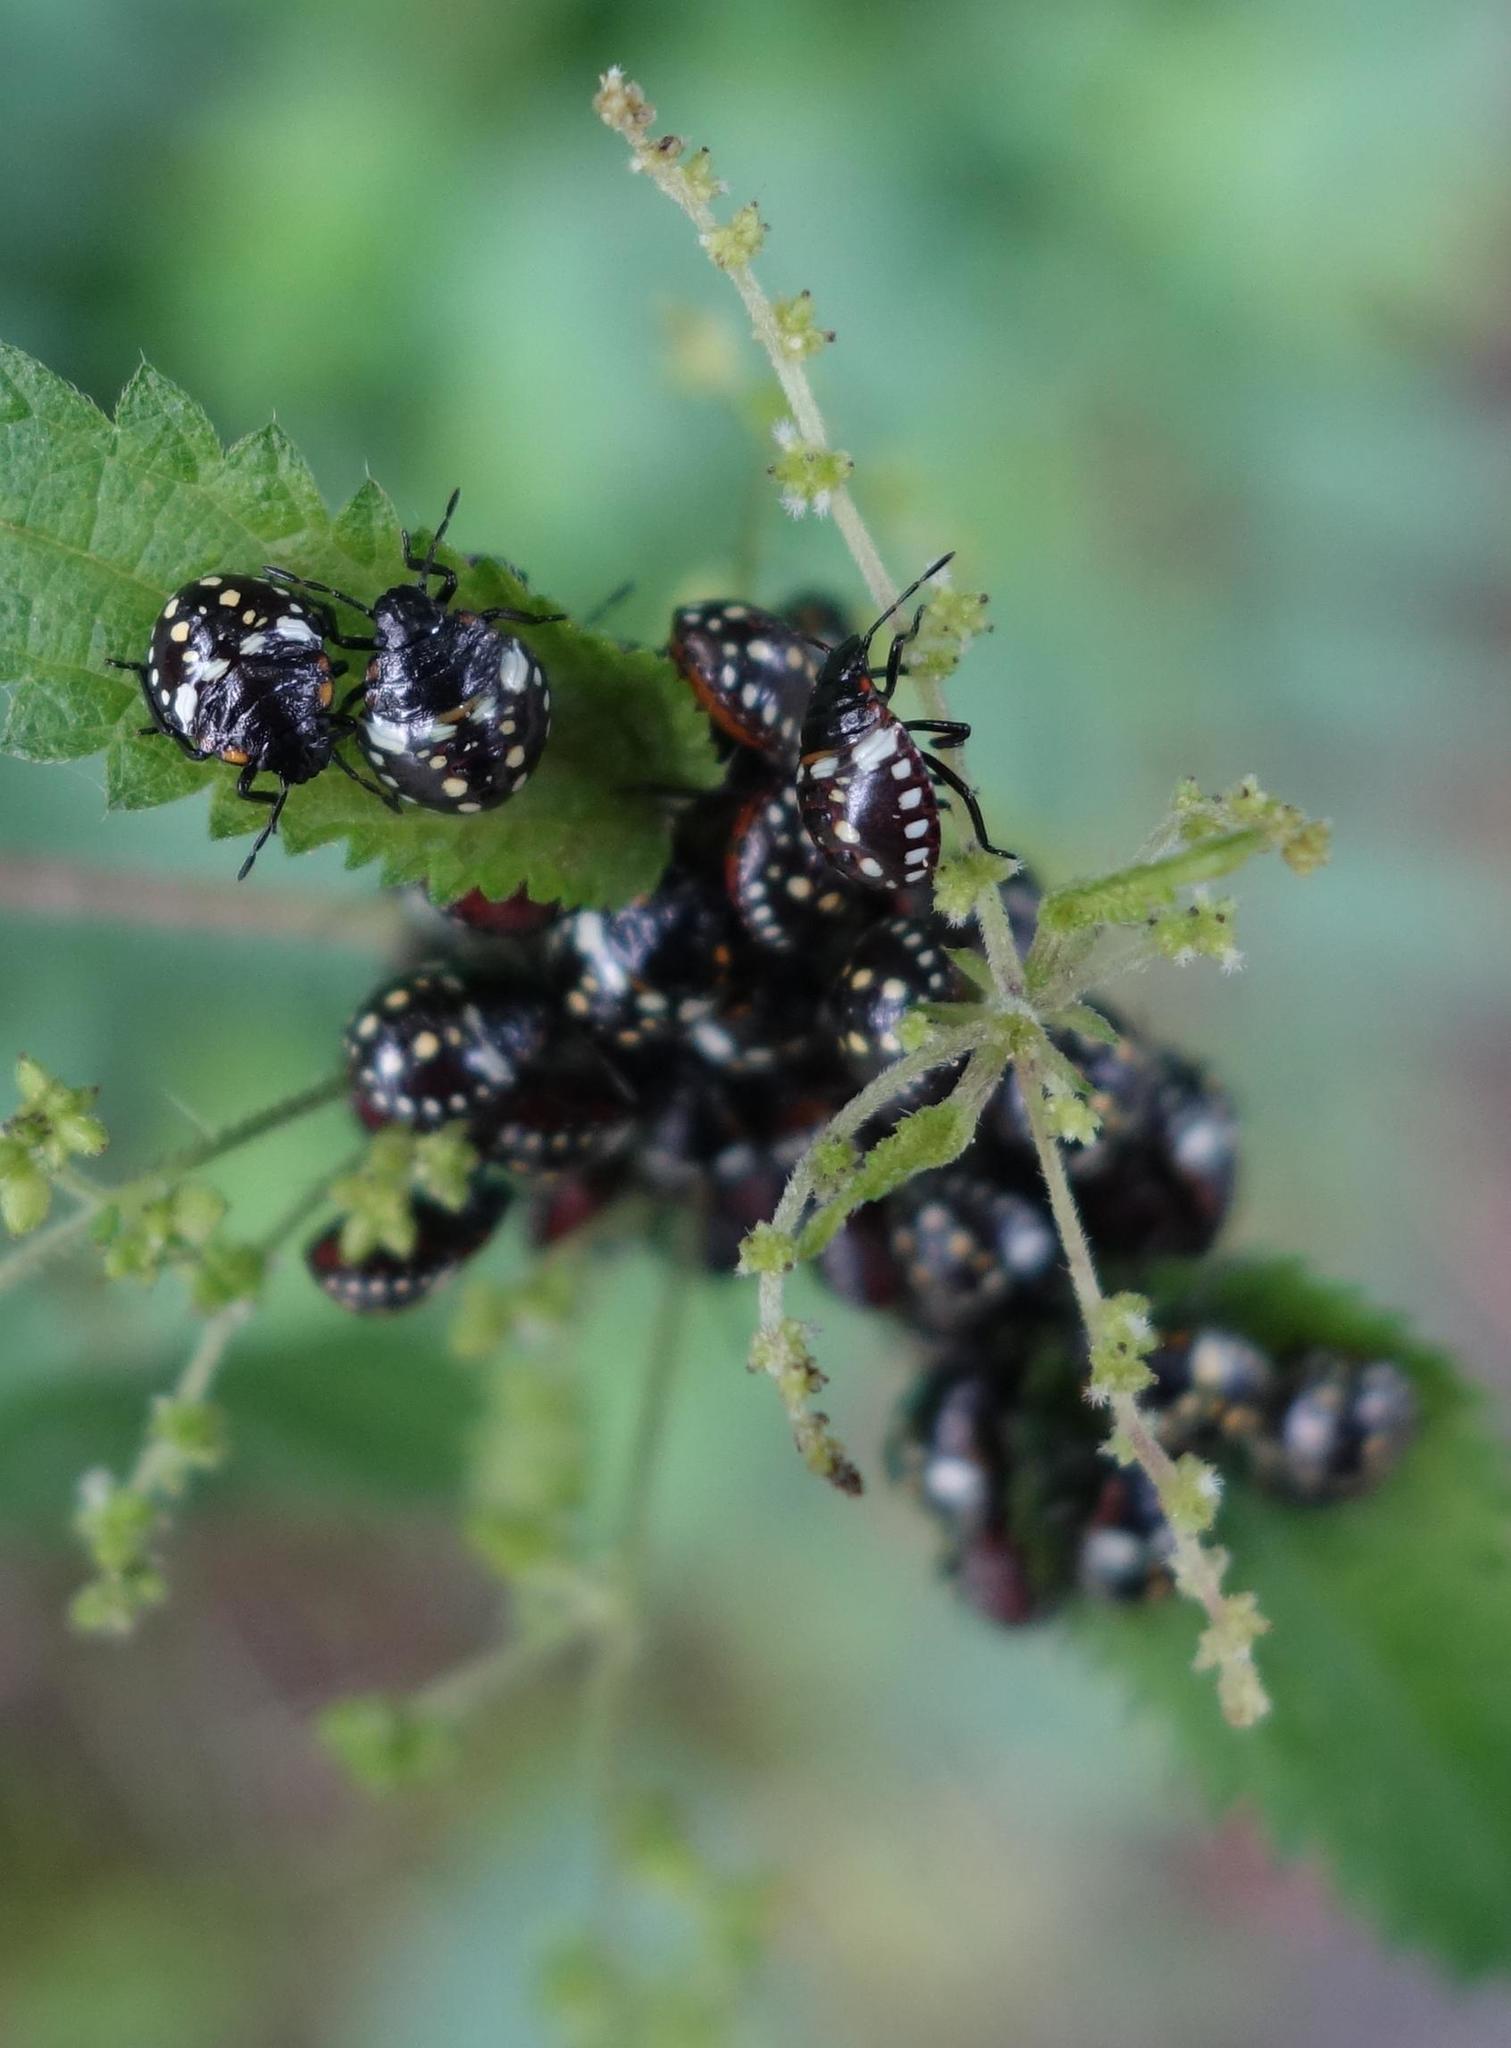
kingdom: Animalia
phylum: Arthropoda
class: Insecta
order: Hemiptera
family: Pentatomidae
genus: Nezara
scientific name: Nezara viridula
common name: Southern green stink bug
